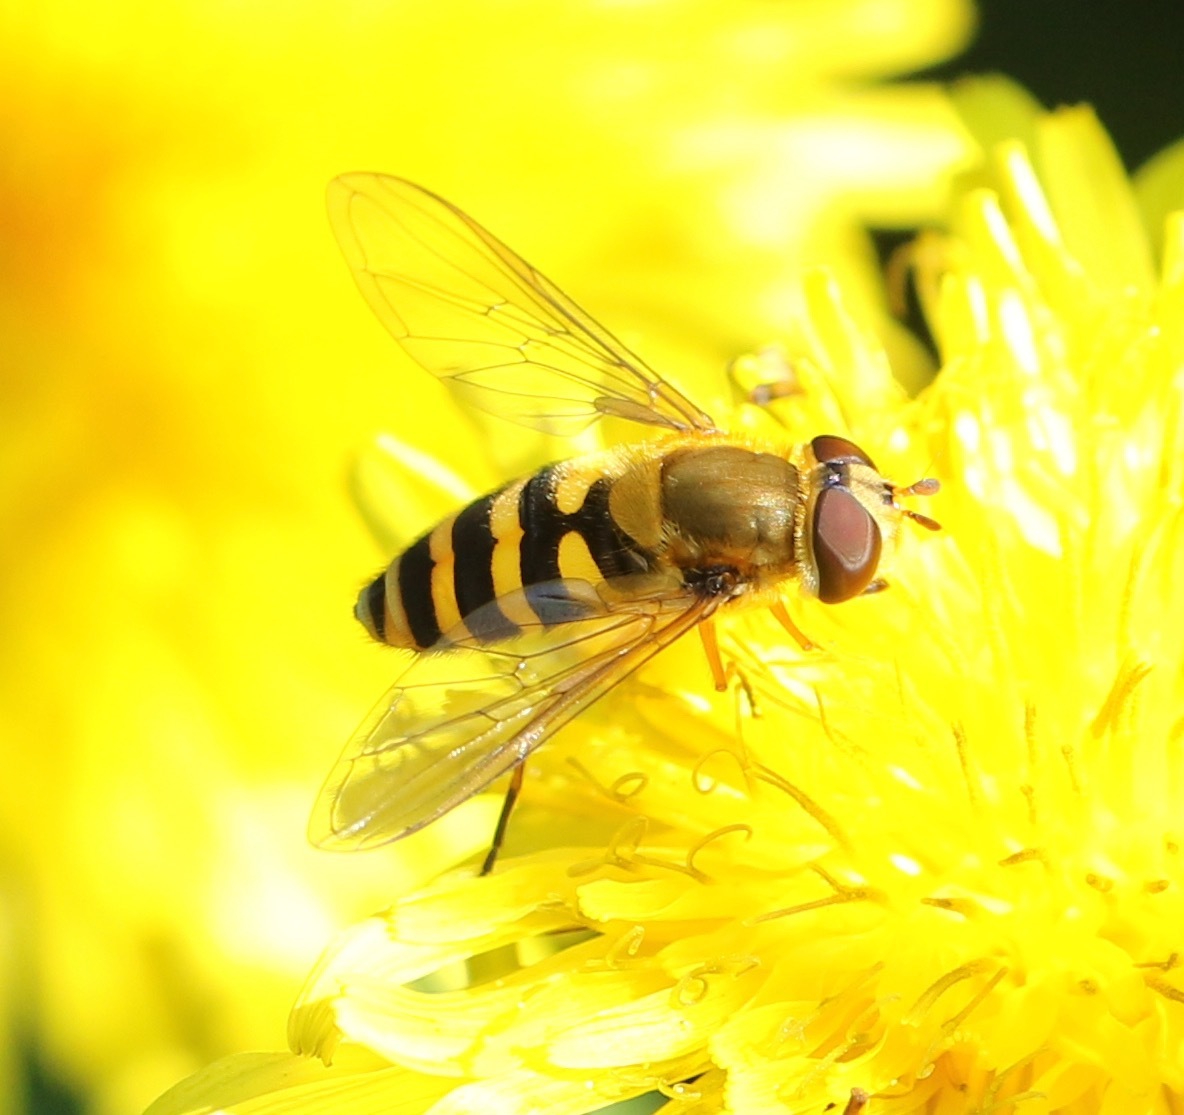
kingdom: Animalia
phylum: Arthropoda
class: Insecta
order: Diptera
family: Syrphidae
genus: Syrphus
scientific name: Syrphus
